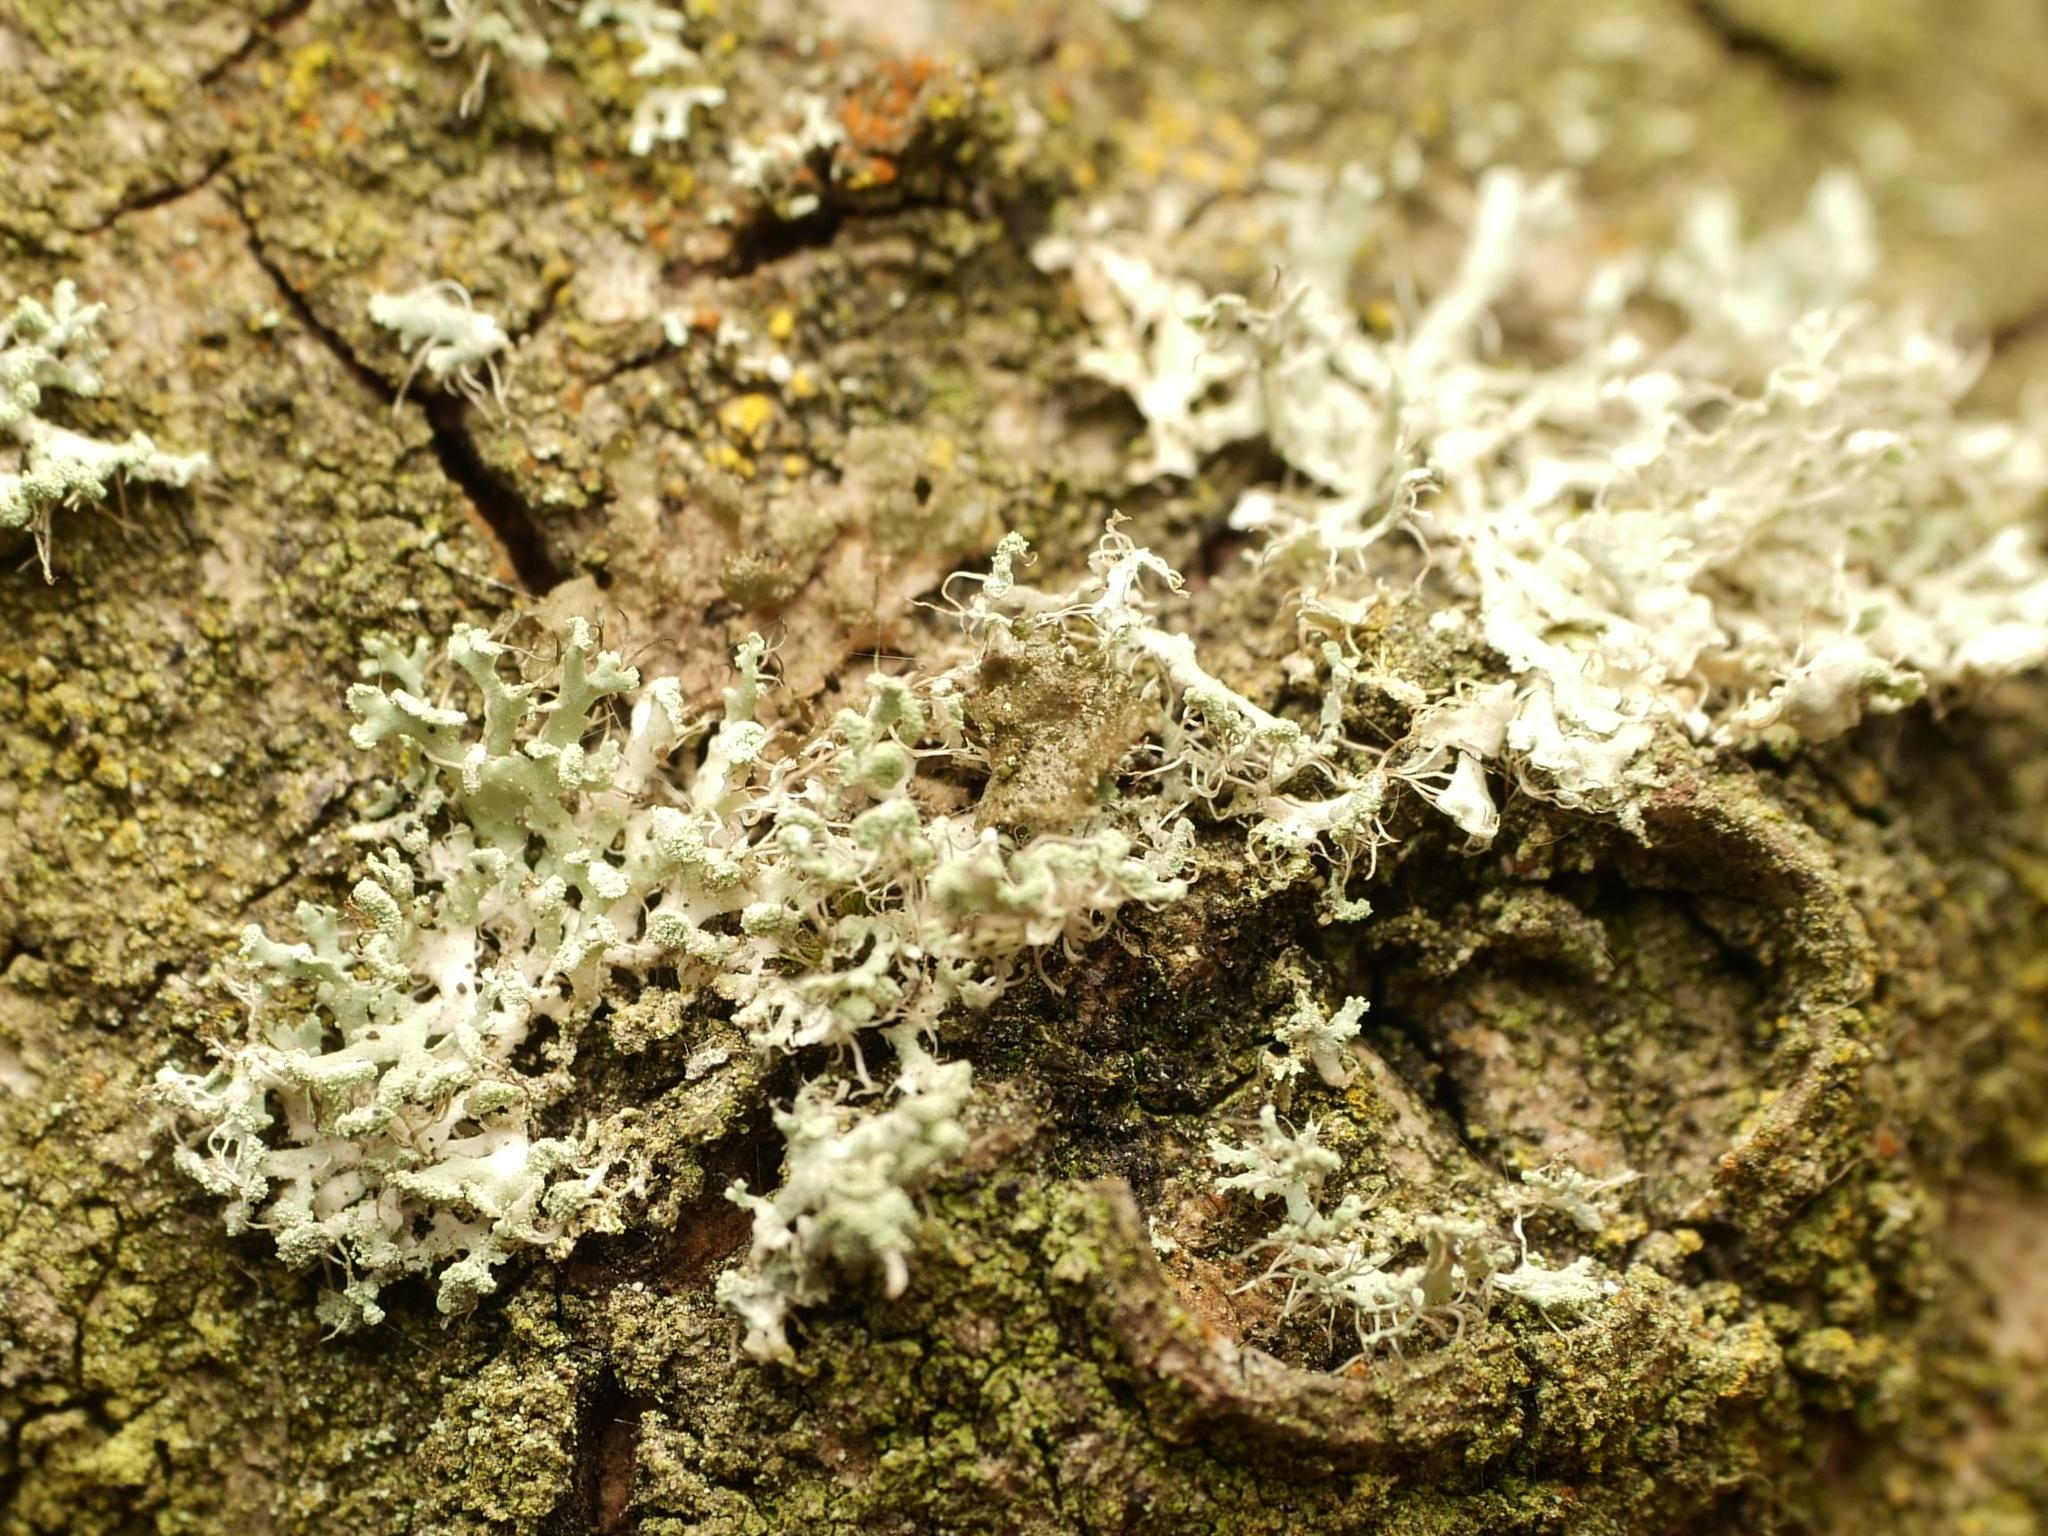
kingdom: Fungi
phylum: Ascomycota
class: Lecanoromycetes
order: Caliciales
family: Physciaceae
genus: Physcia
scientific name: Physcia tenella
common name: Fringed rosette lichen
